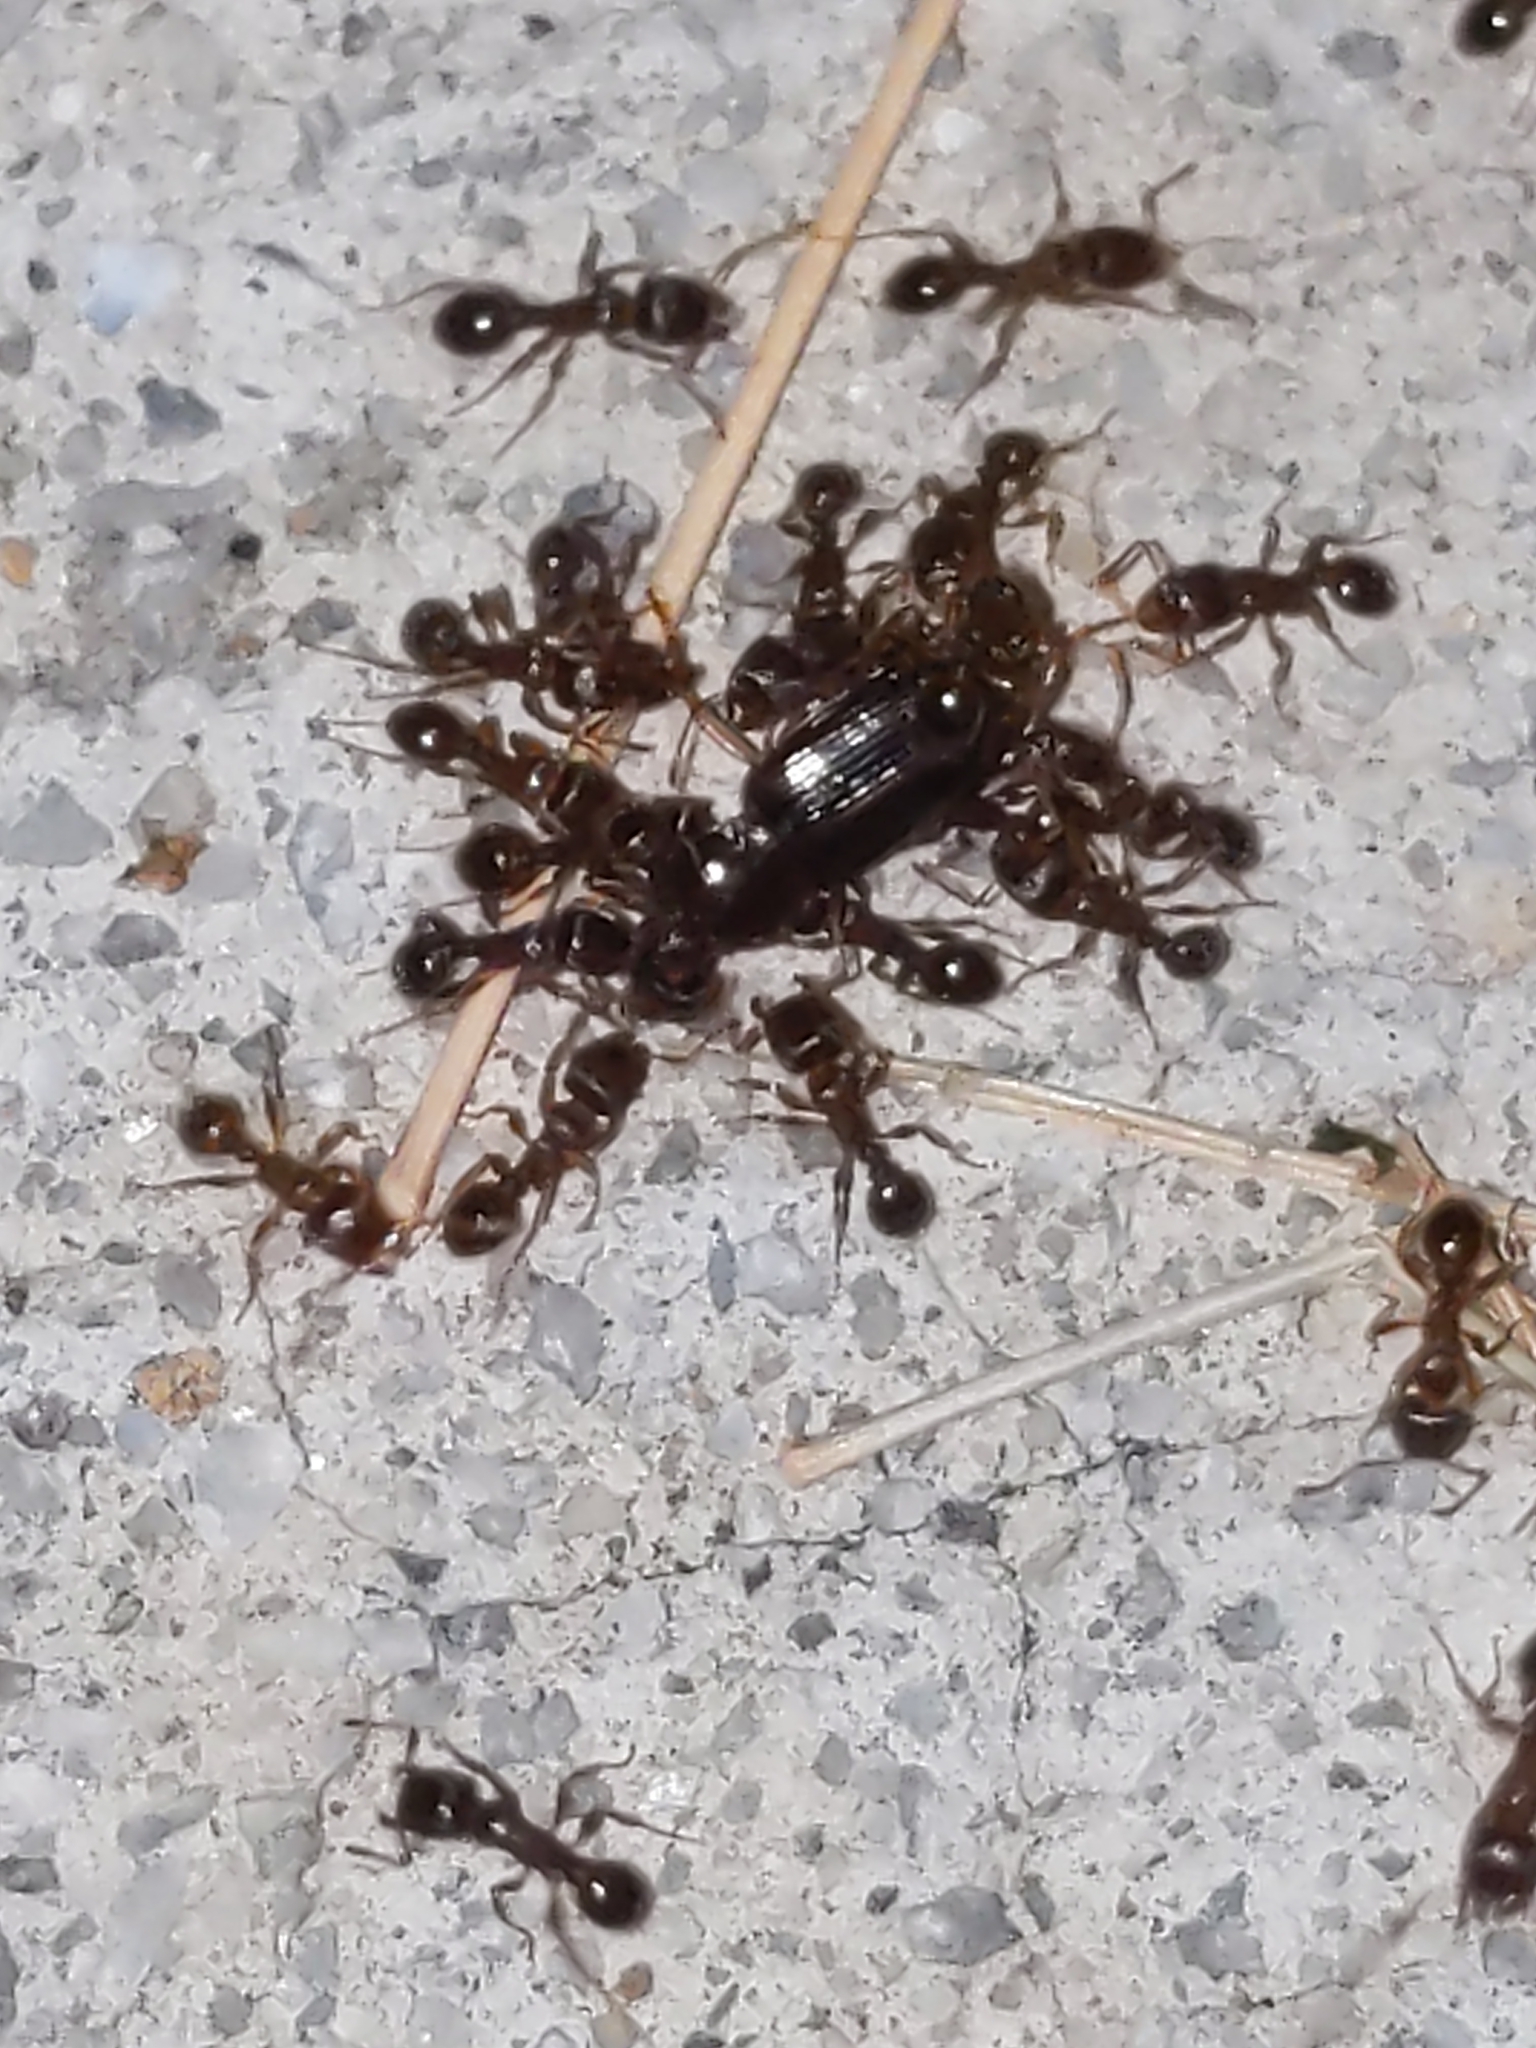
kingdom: Animalia
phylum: Arthropoda
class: Insecta
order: Hymenoptera
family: Formicidae
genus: Tetramorium
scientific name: Tetramorium immigrans
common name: Pavement ant
